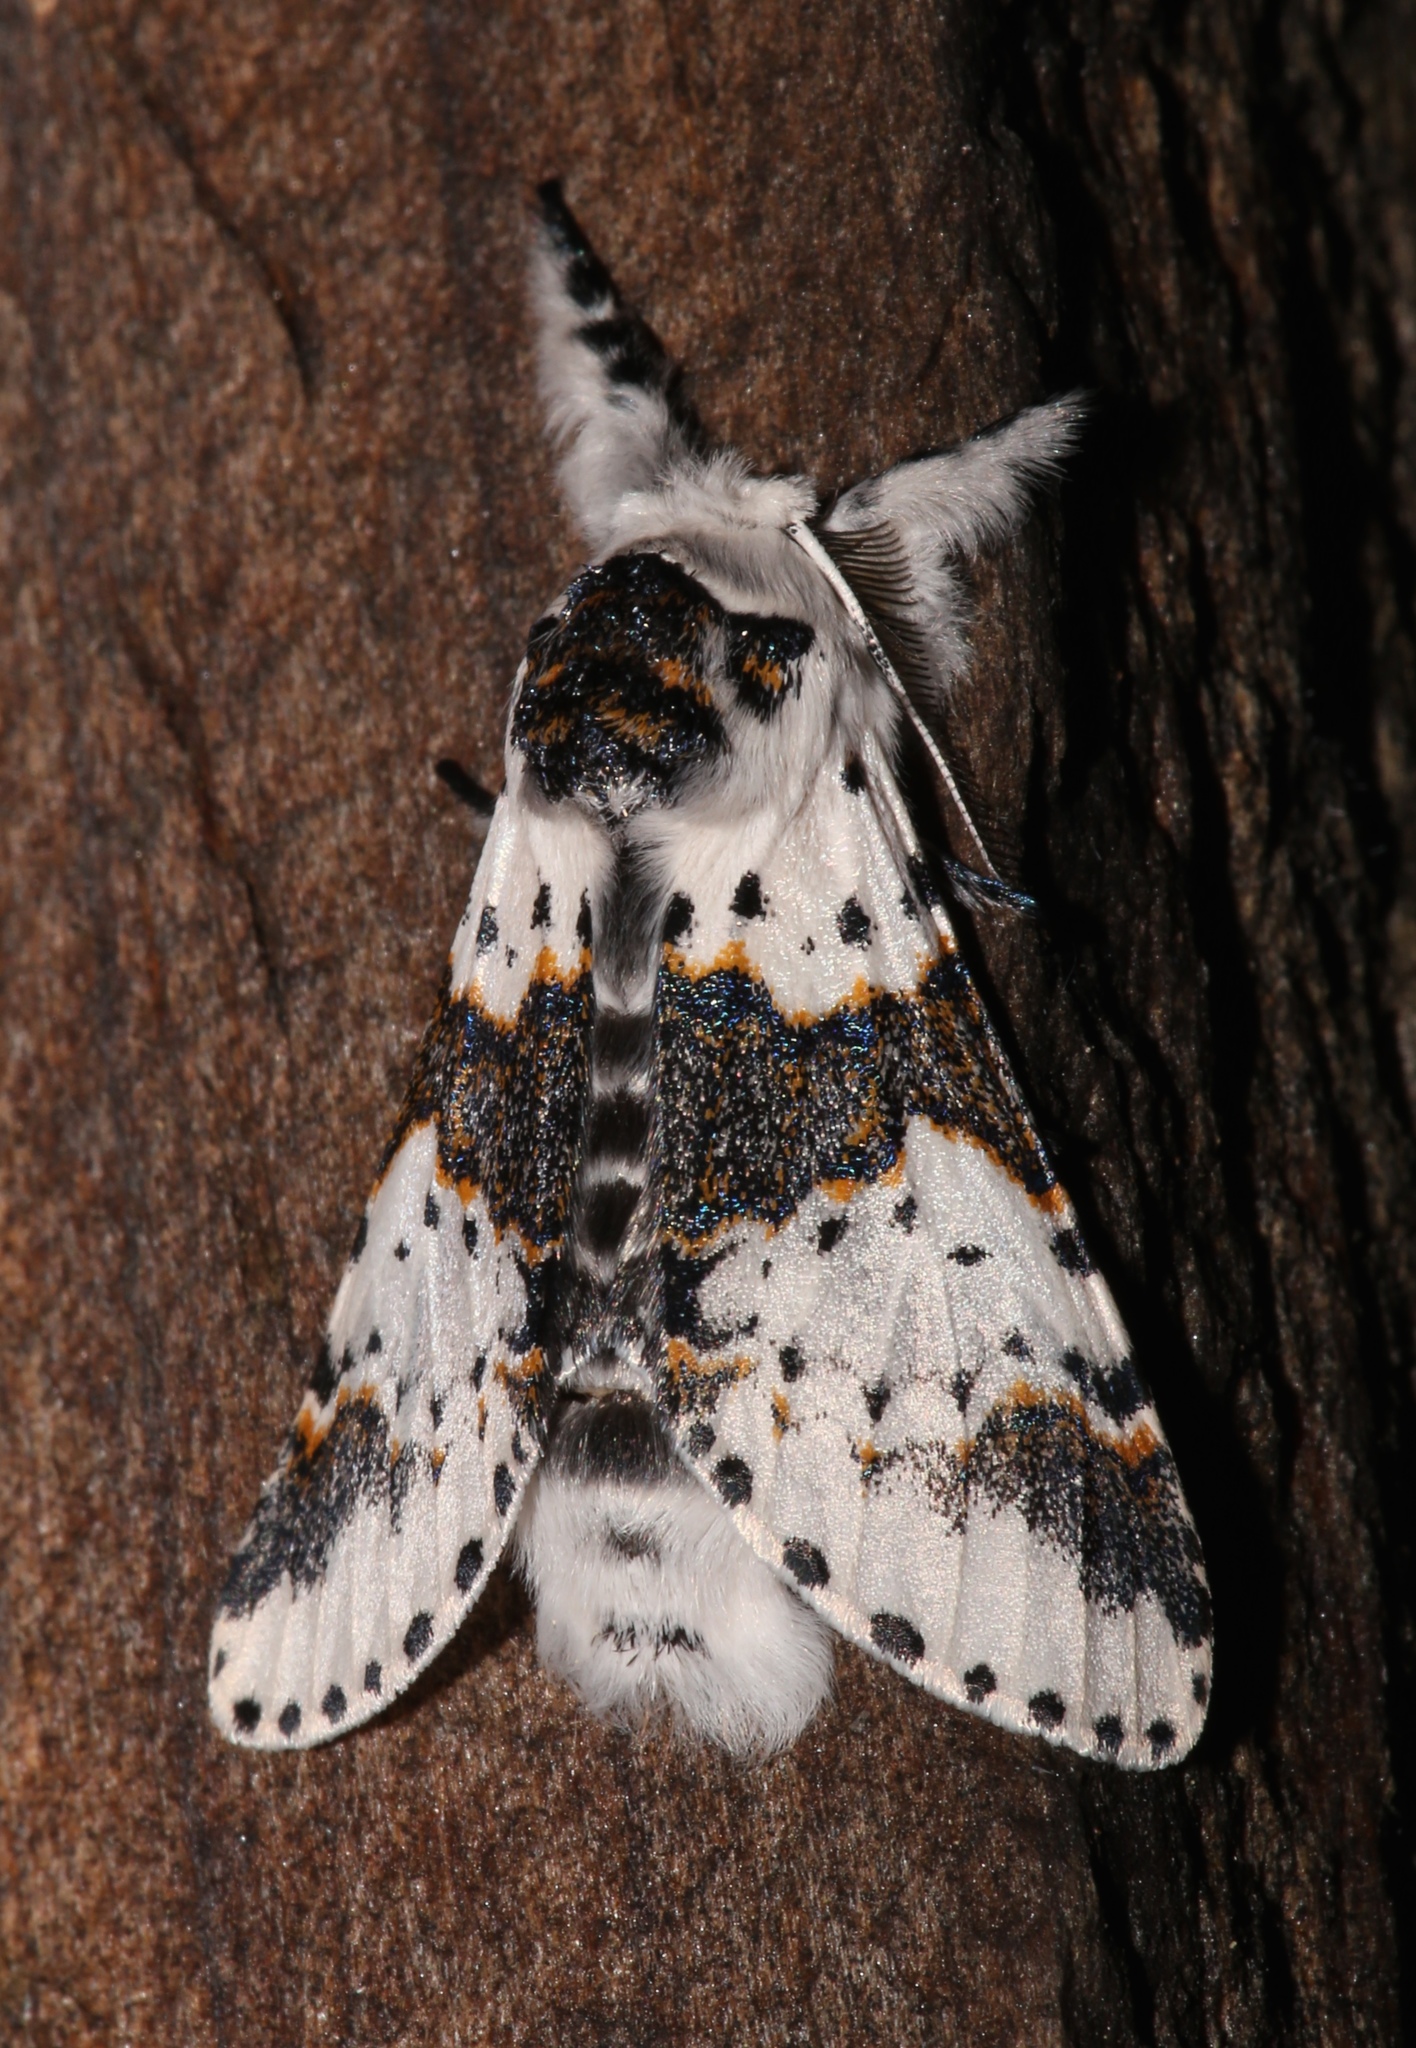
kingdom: Animalia
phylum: Arthropoda
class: Insecta
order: Lepidoptera
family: Notodontidae
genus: Furcula
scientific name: Furcula borealis
